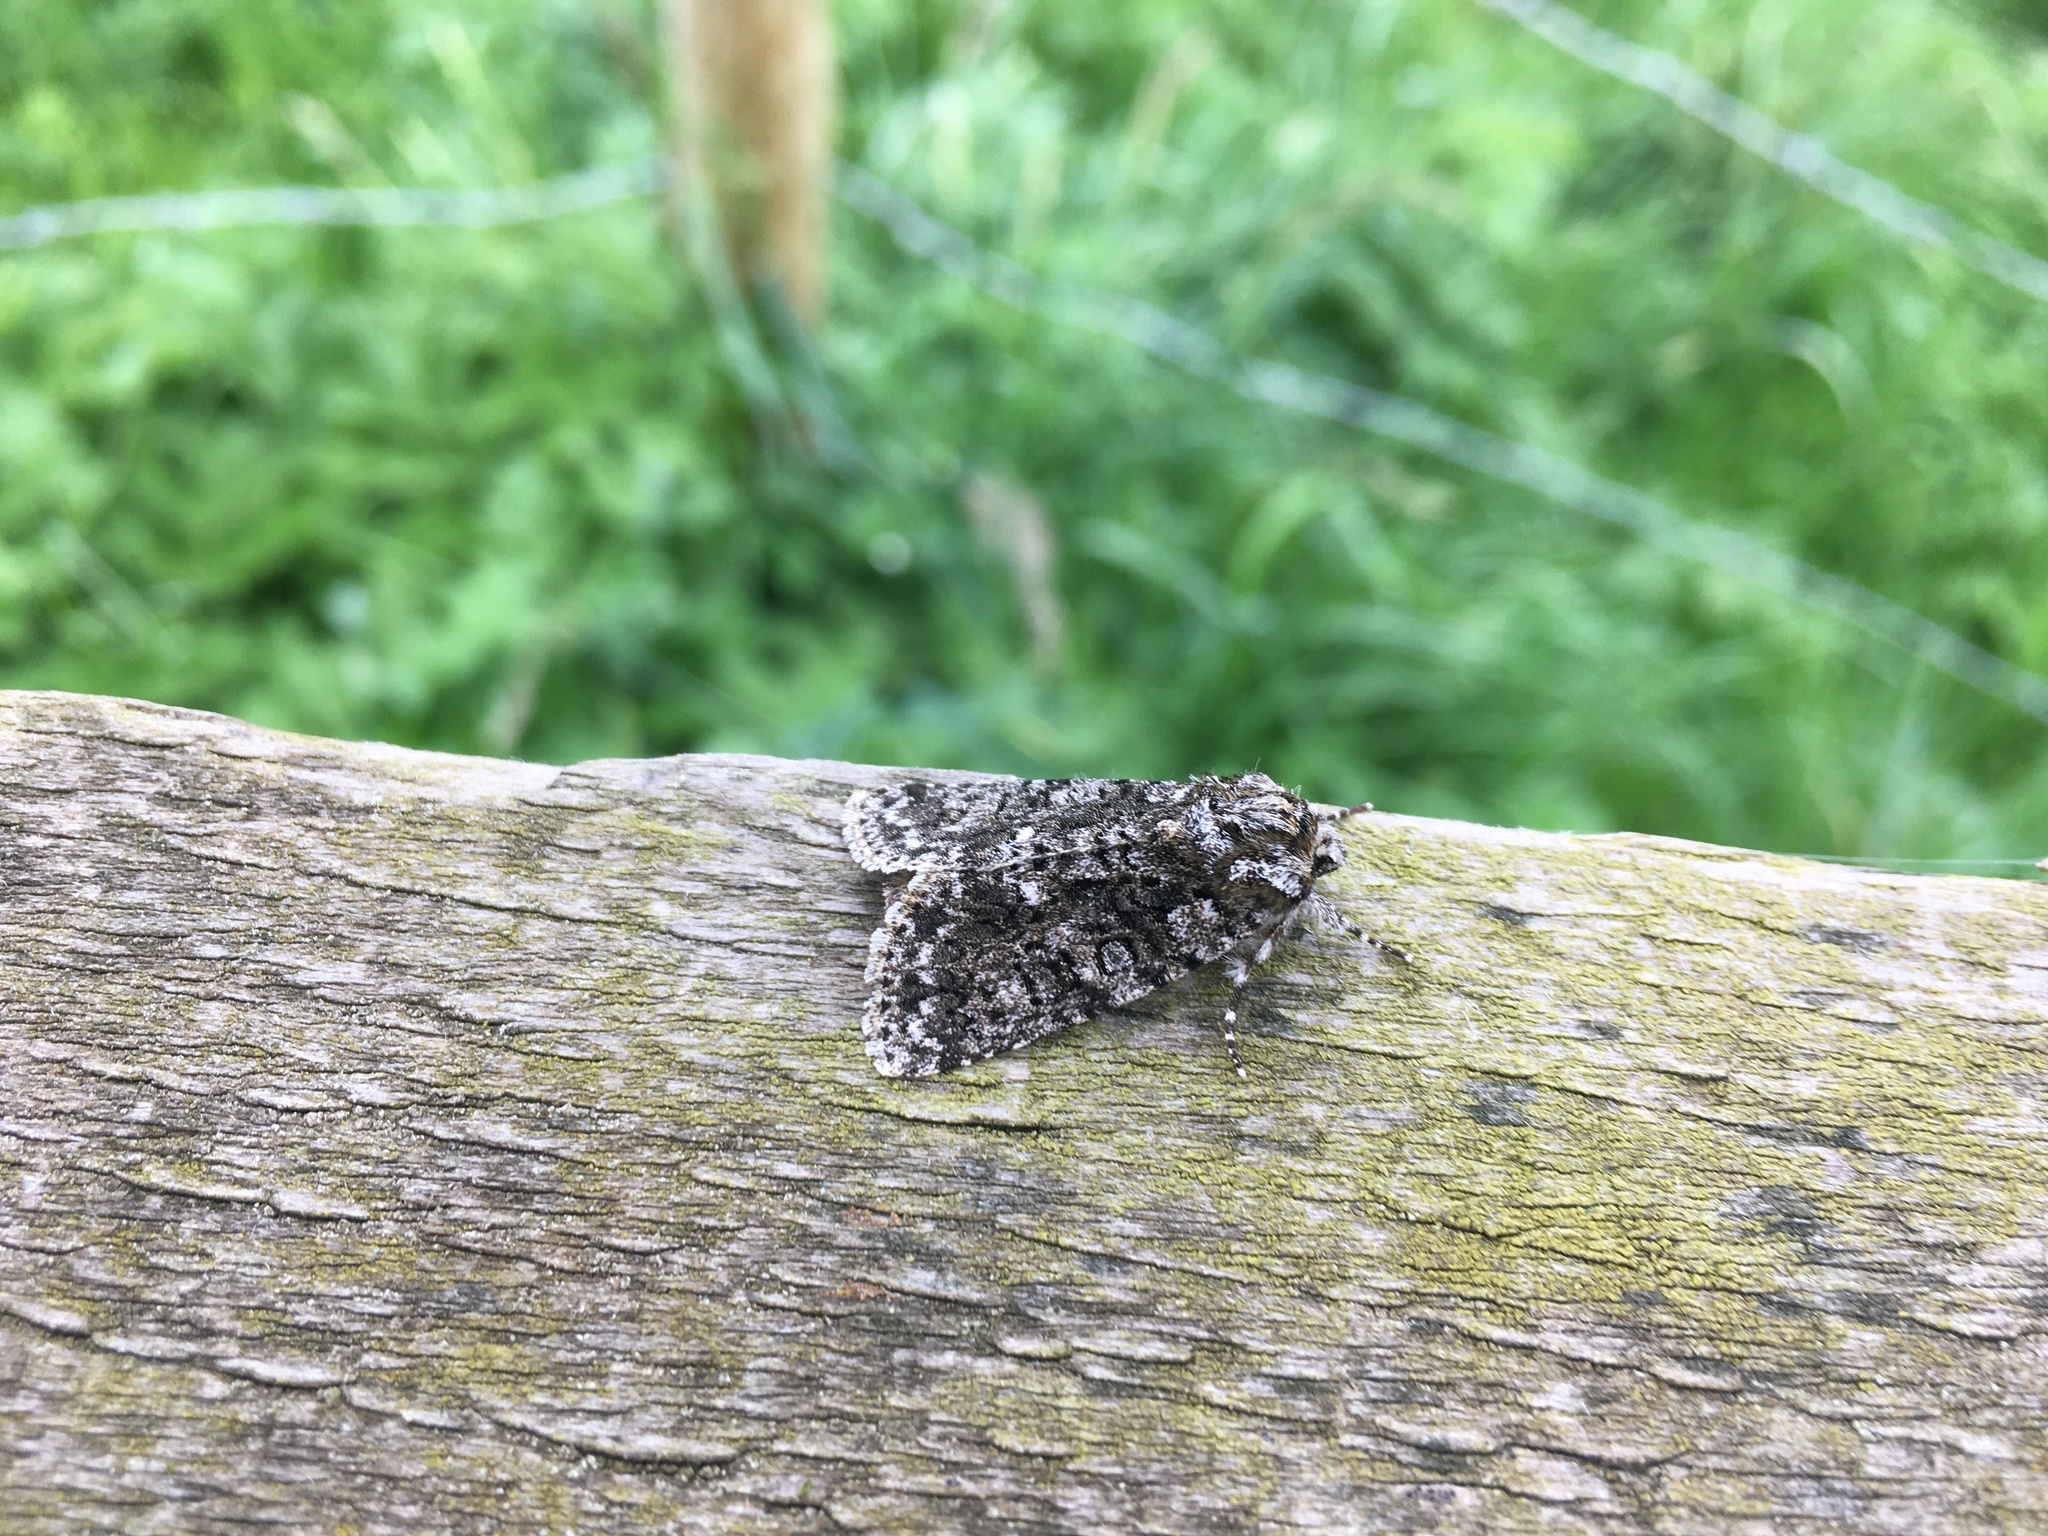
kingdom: Animalia
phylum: Arthropoda
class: Insecta
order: Lepidoptera
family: Noctuidae
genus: Acronicta
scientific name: Acronicta rumicis
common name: Knot grass
